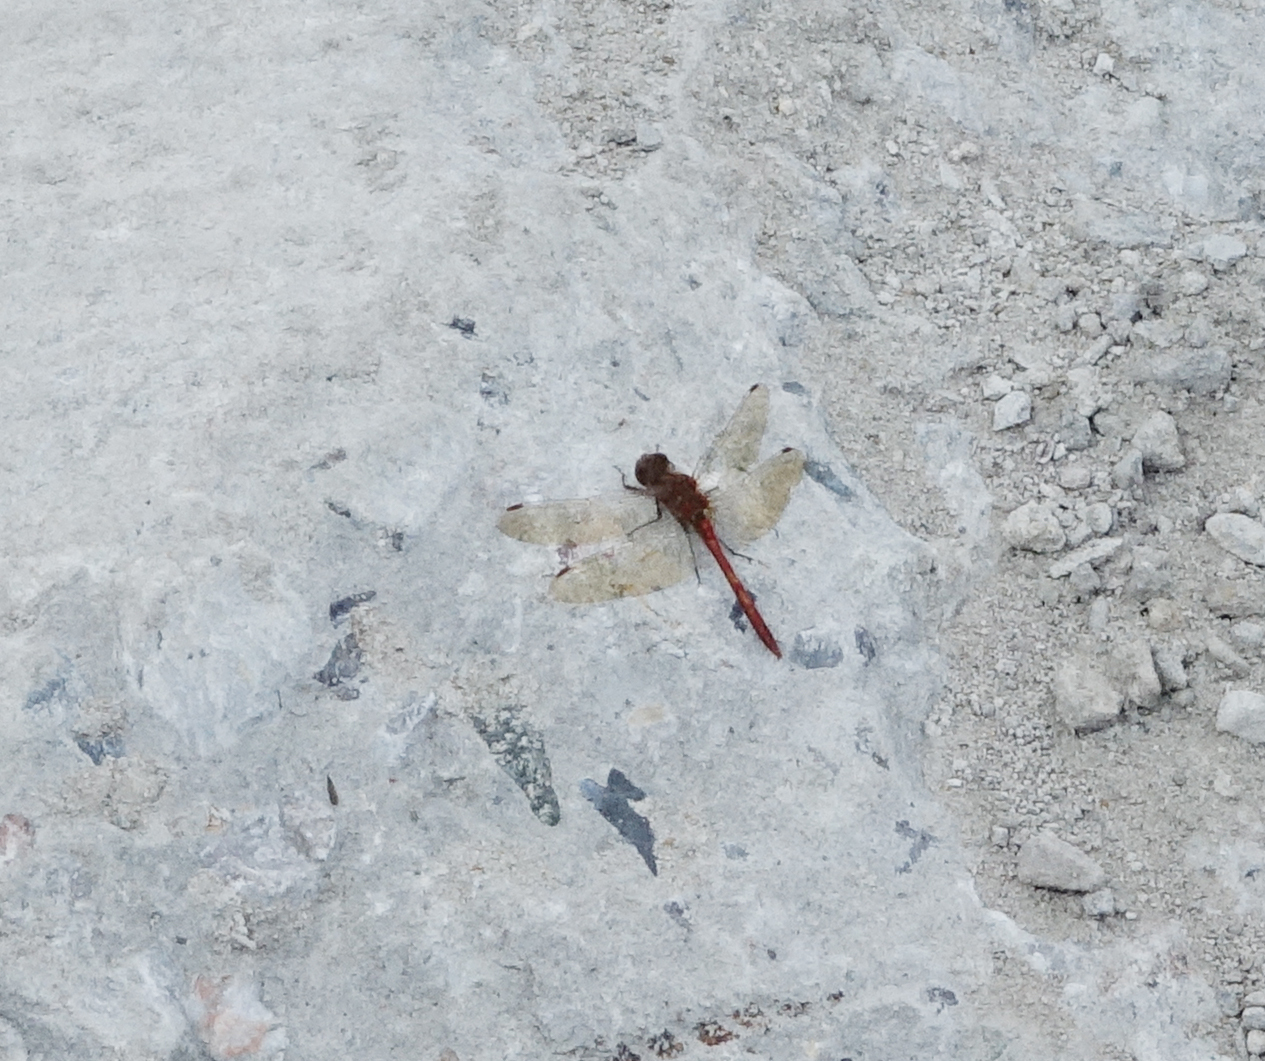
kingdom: Animalia
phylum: Arthropoda
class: Insecta
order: Odonata
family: Libellulidae
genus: Sympetrum
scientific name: Sympetrum vulgatum
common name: Vagrant darter
